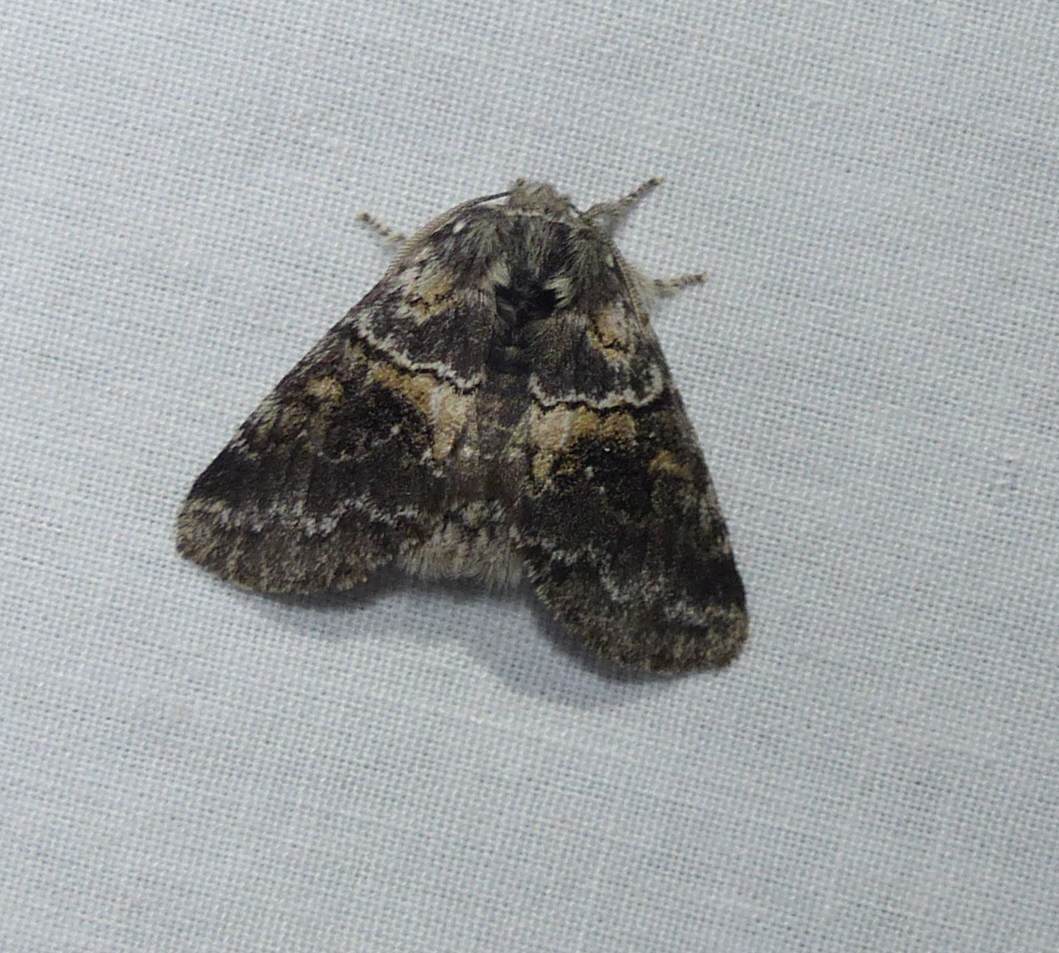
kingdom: Animalia
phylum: Arthropoda
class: Insecta
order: Lepidoptera
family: Notodontidae
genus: Gluphisia
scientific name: Gluphisia septentrionis
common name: Common gluphisia
